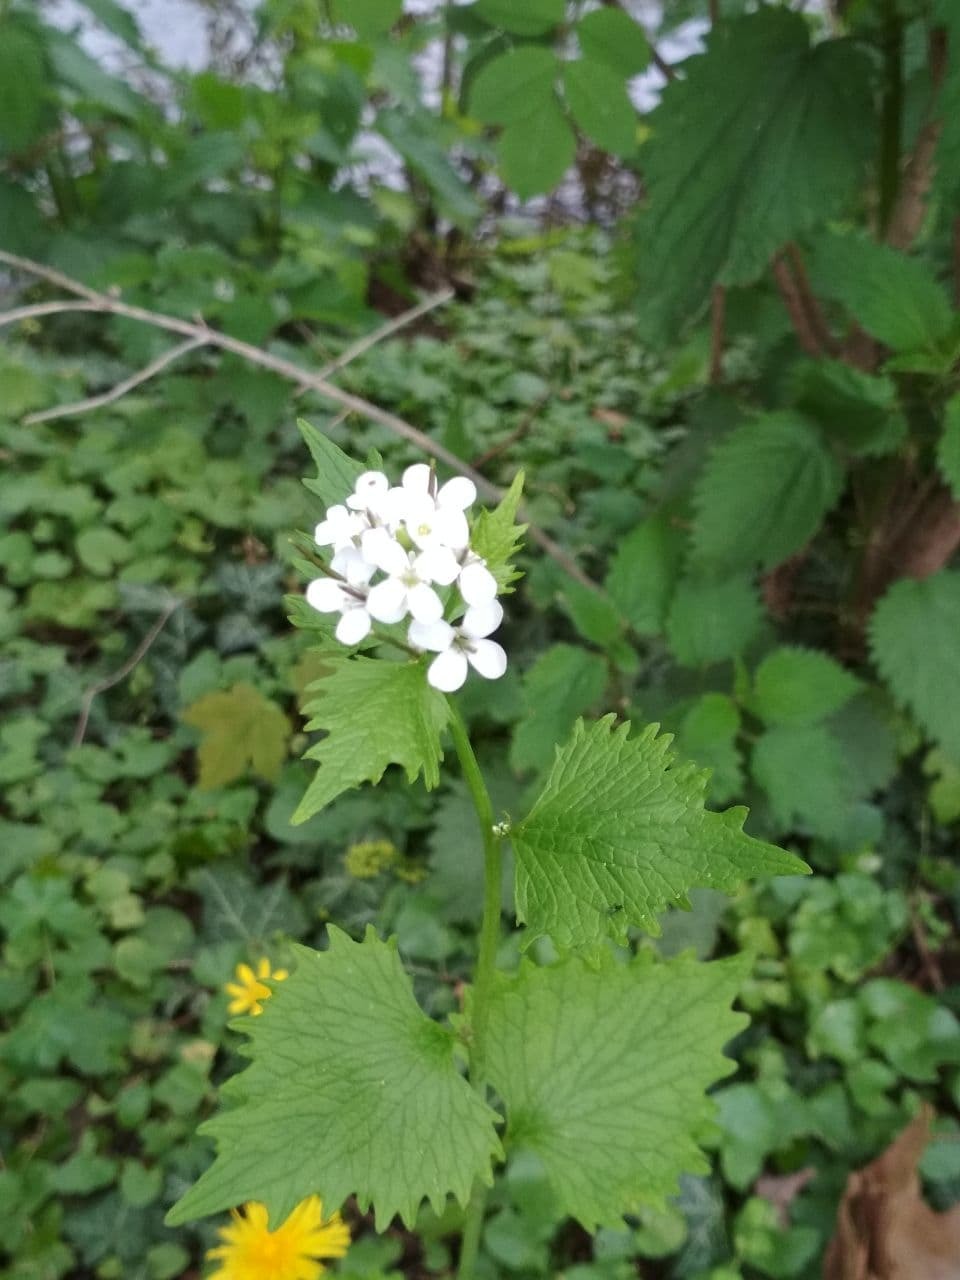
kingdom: Plantae
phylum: Tracheophyta
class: Magnoliopsida
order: Brassicales
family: Brassicaceae
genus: Alliaria
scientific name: Alliaria petiolata
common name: Garlic mustard
